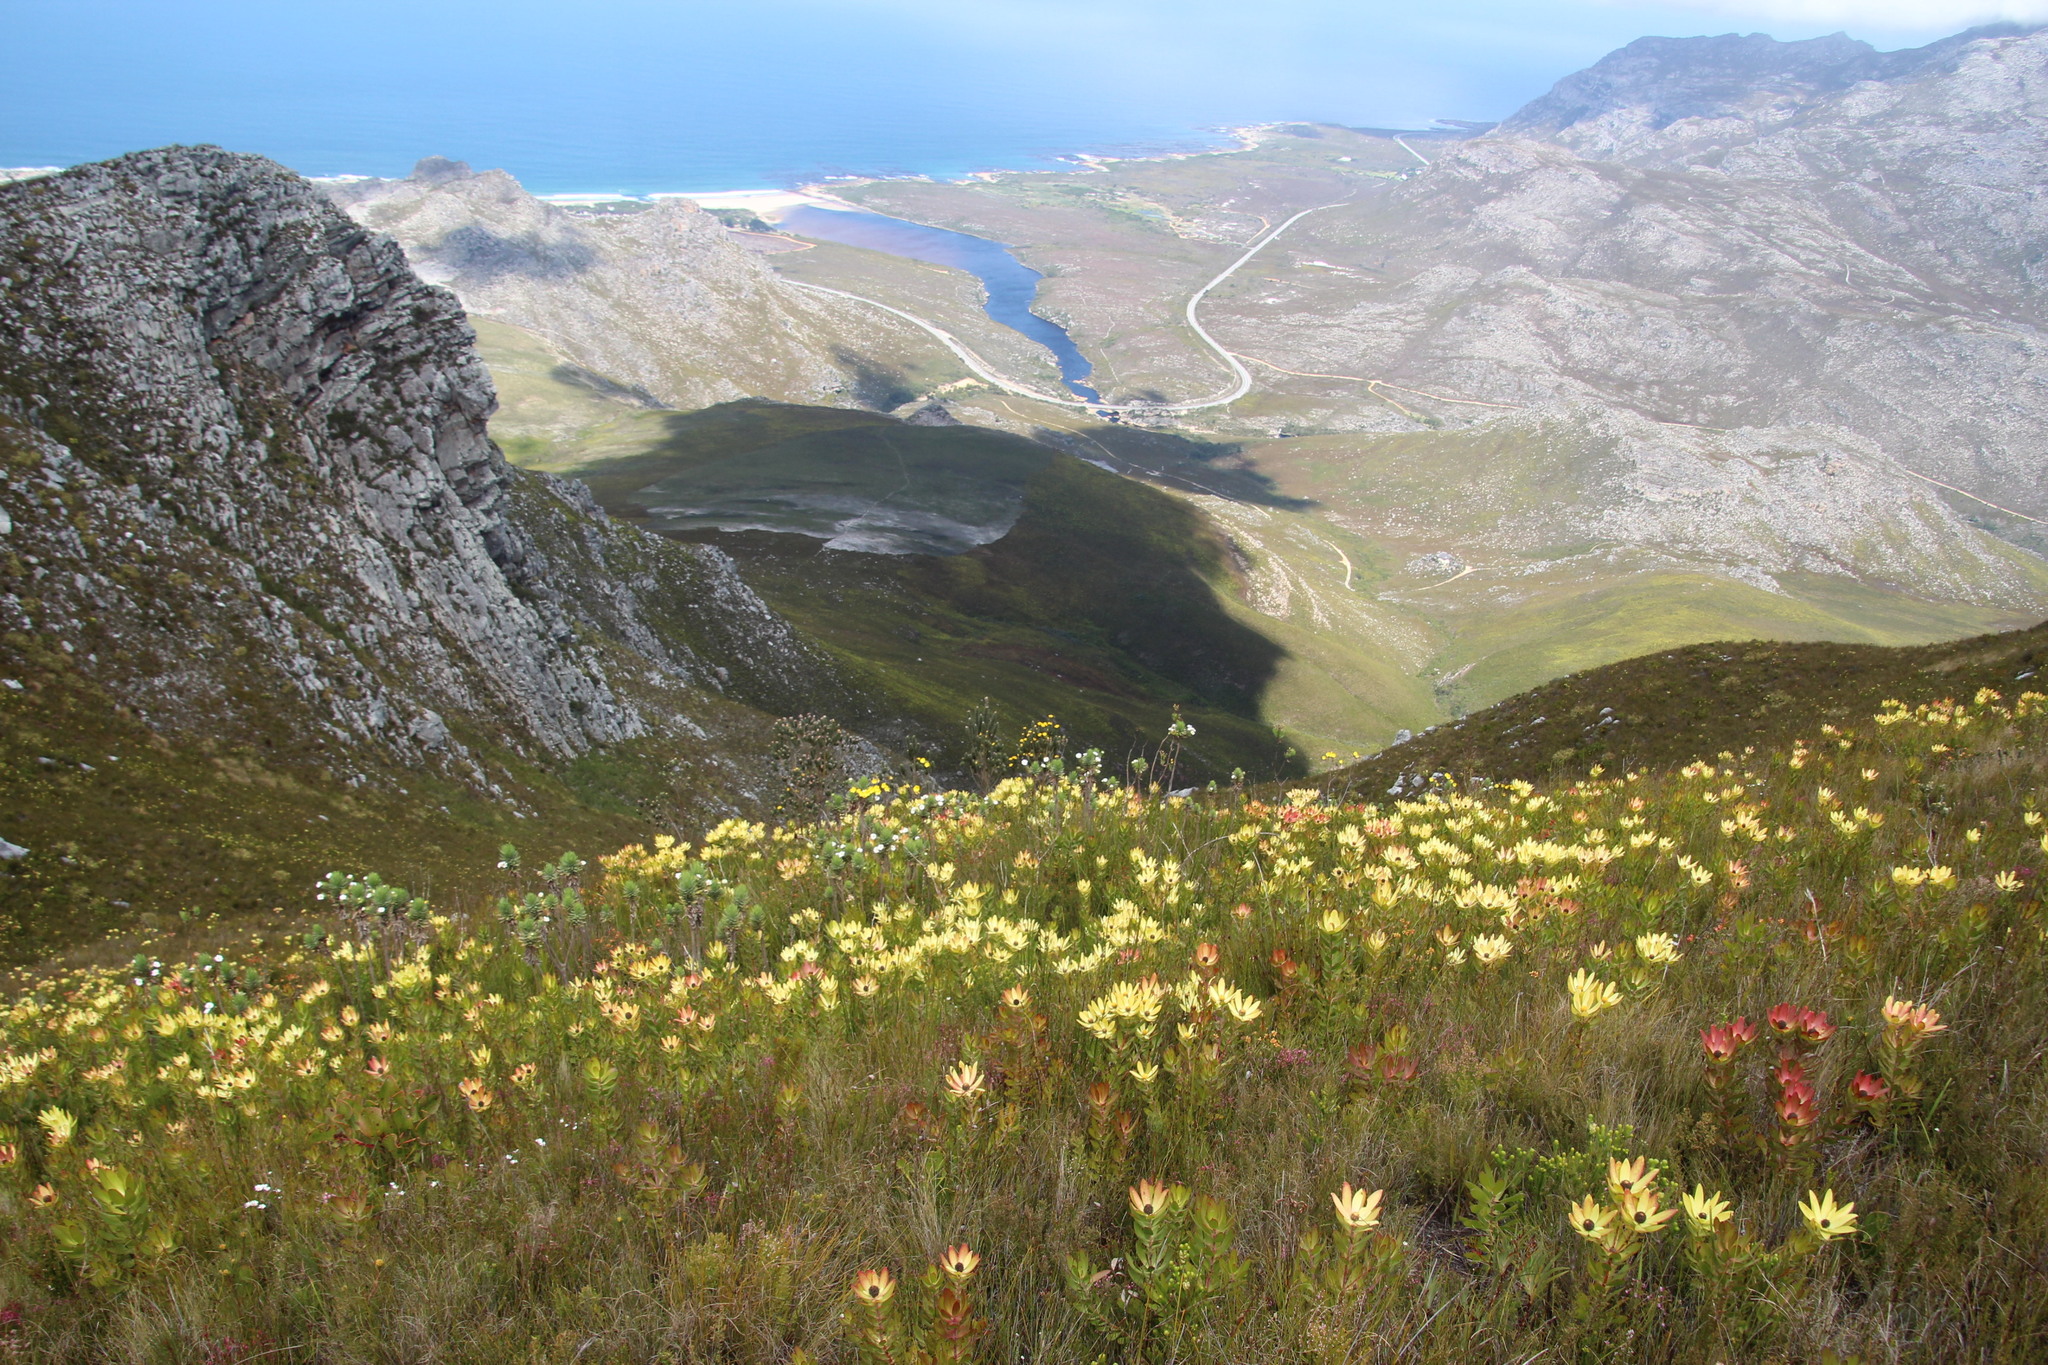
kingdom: Plantae
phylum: Tracheophyta
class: Magnoliopsida
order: Proteales
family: Proteaceae
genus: Leucadendron
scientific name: Leucadendron gandogeri
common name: Broad-leaf conebush
